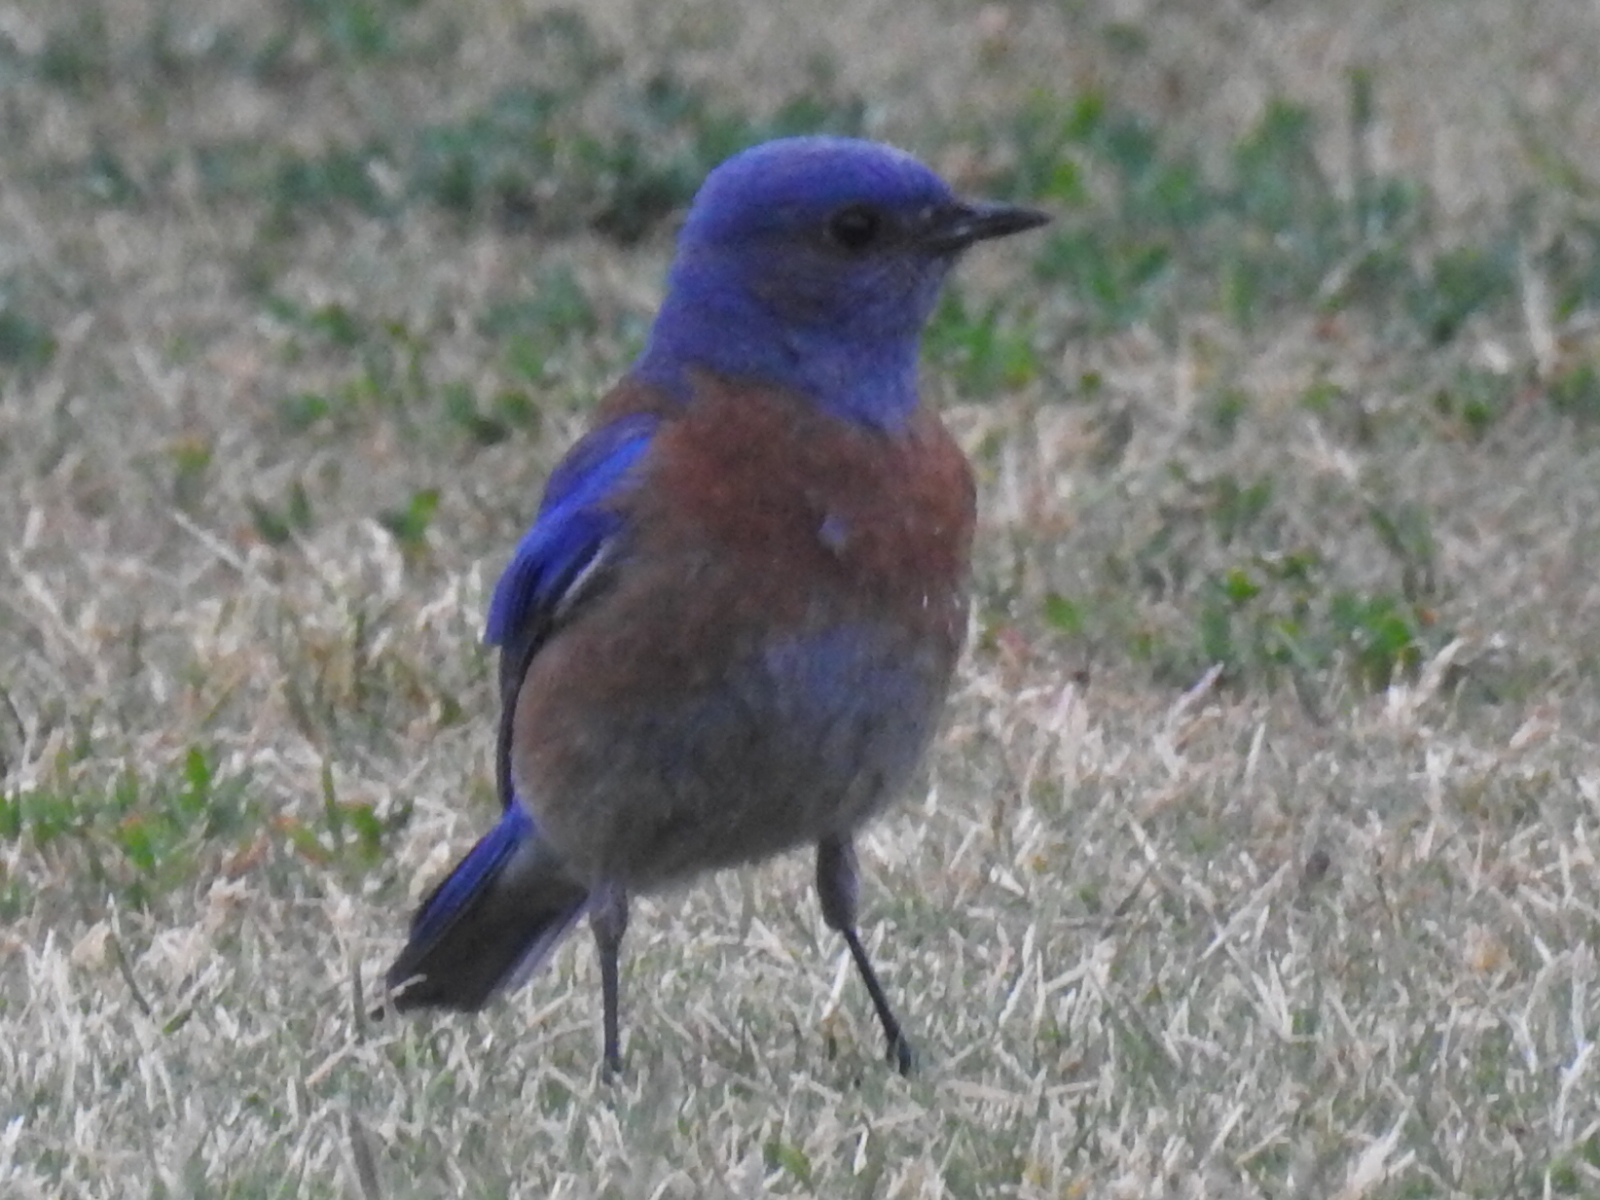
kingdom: Animalia
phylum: Chordata
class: Aves
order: Passeriformes
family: Turdidae
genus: Sialia
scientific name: Sialia mexicana
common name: Western bluebird
